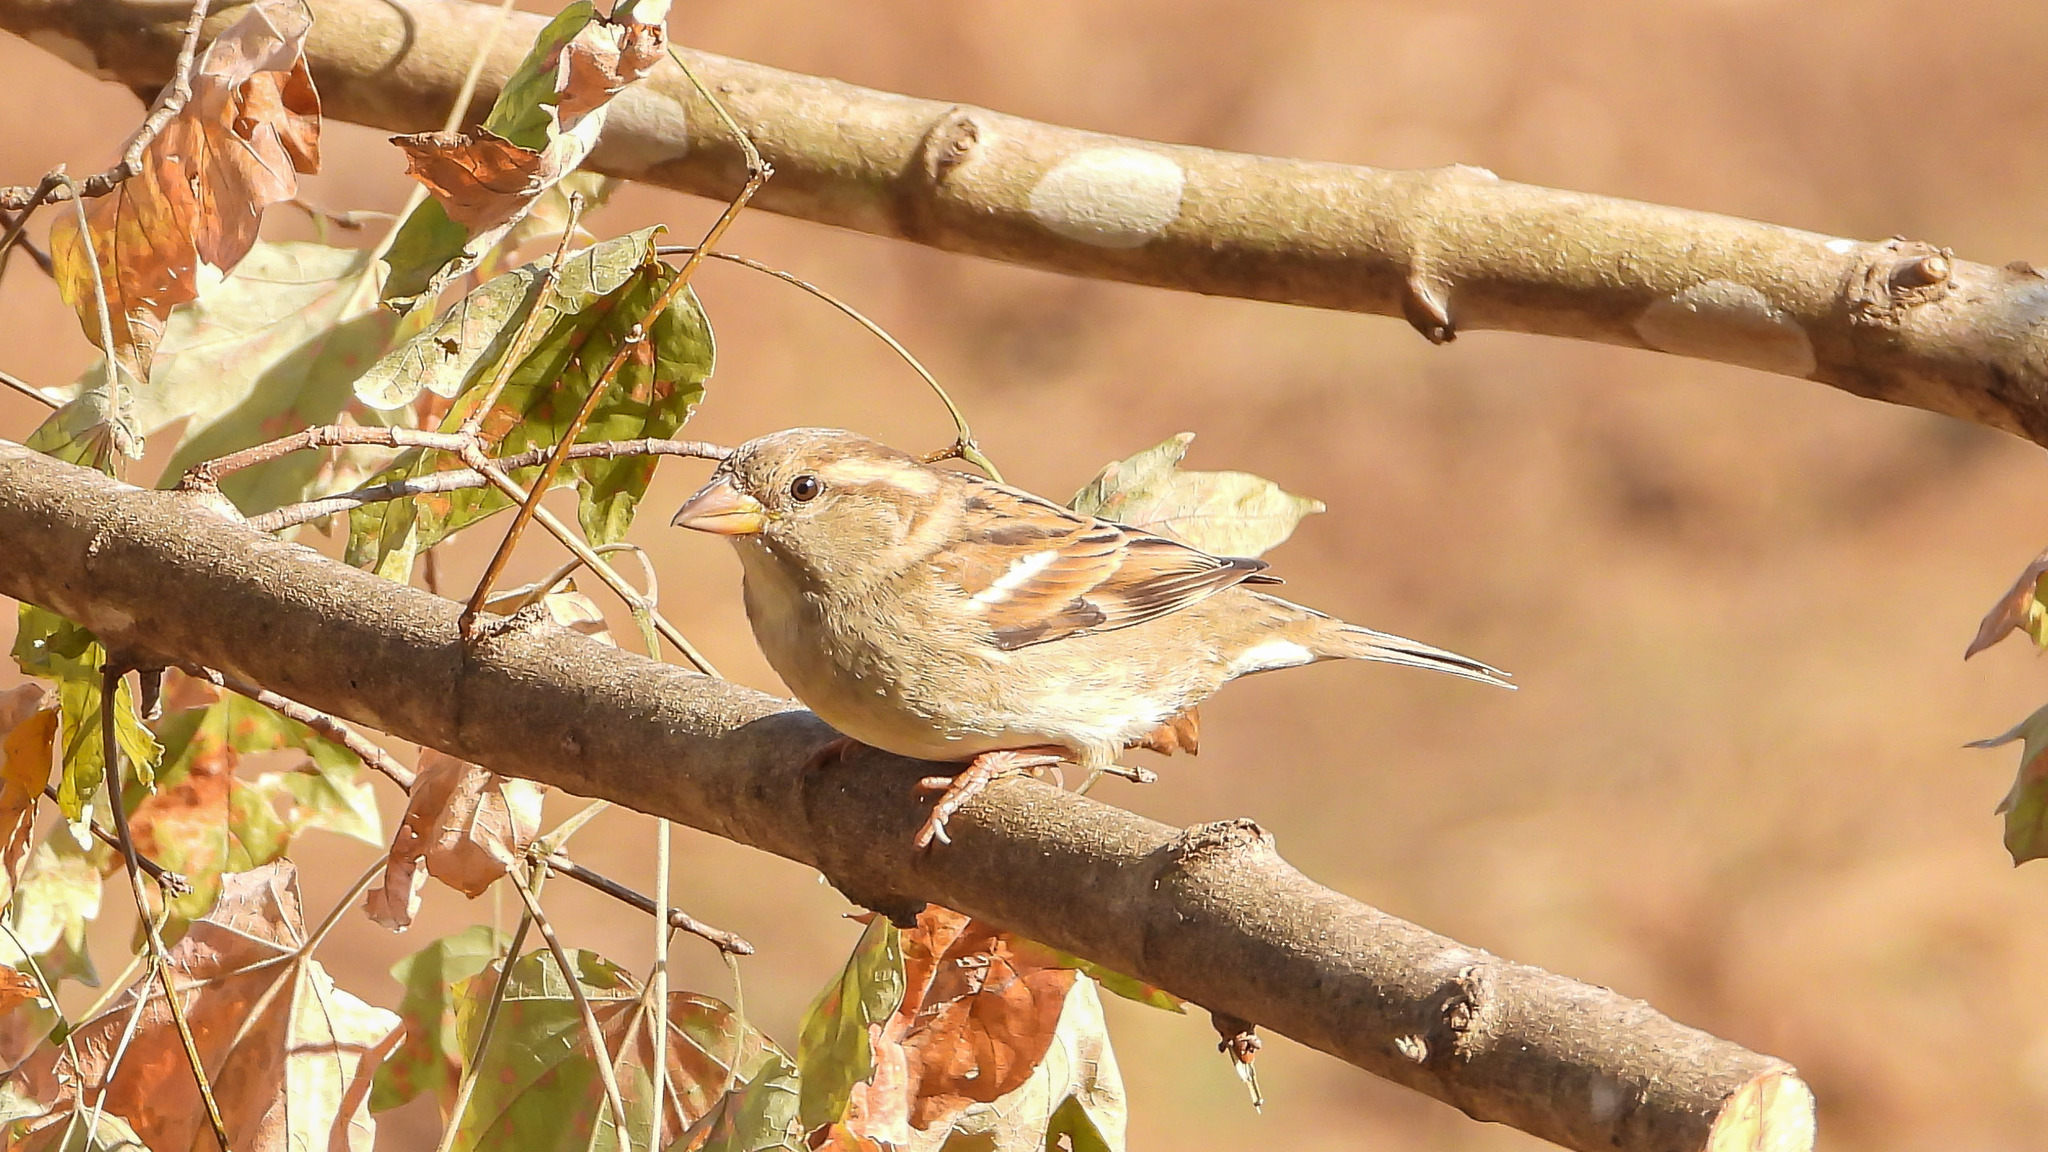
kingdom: Animalia
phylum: Chordata
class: Aves
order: Passeriformes
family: Passeridae
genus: Passer
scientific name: Passer domesticus
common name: House sparrow
